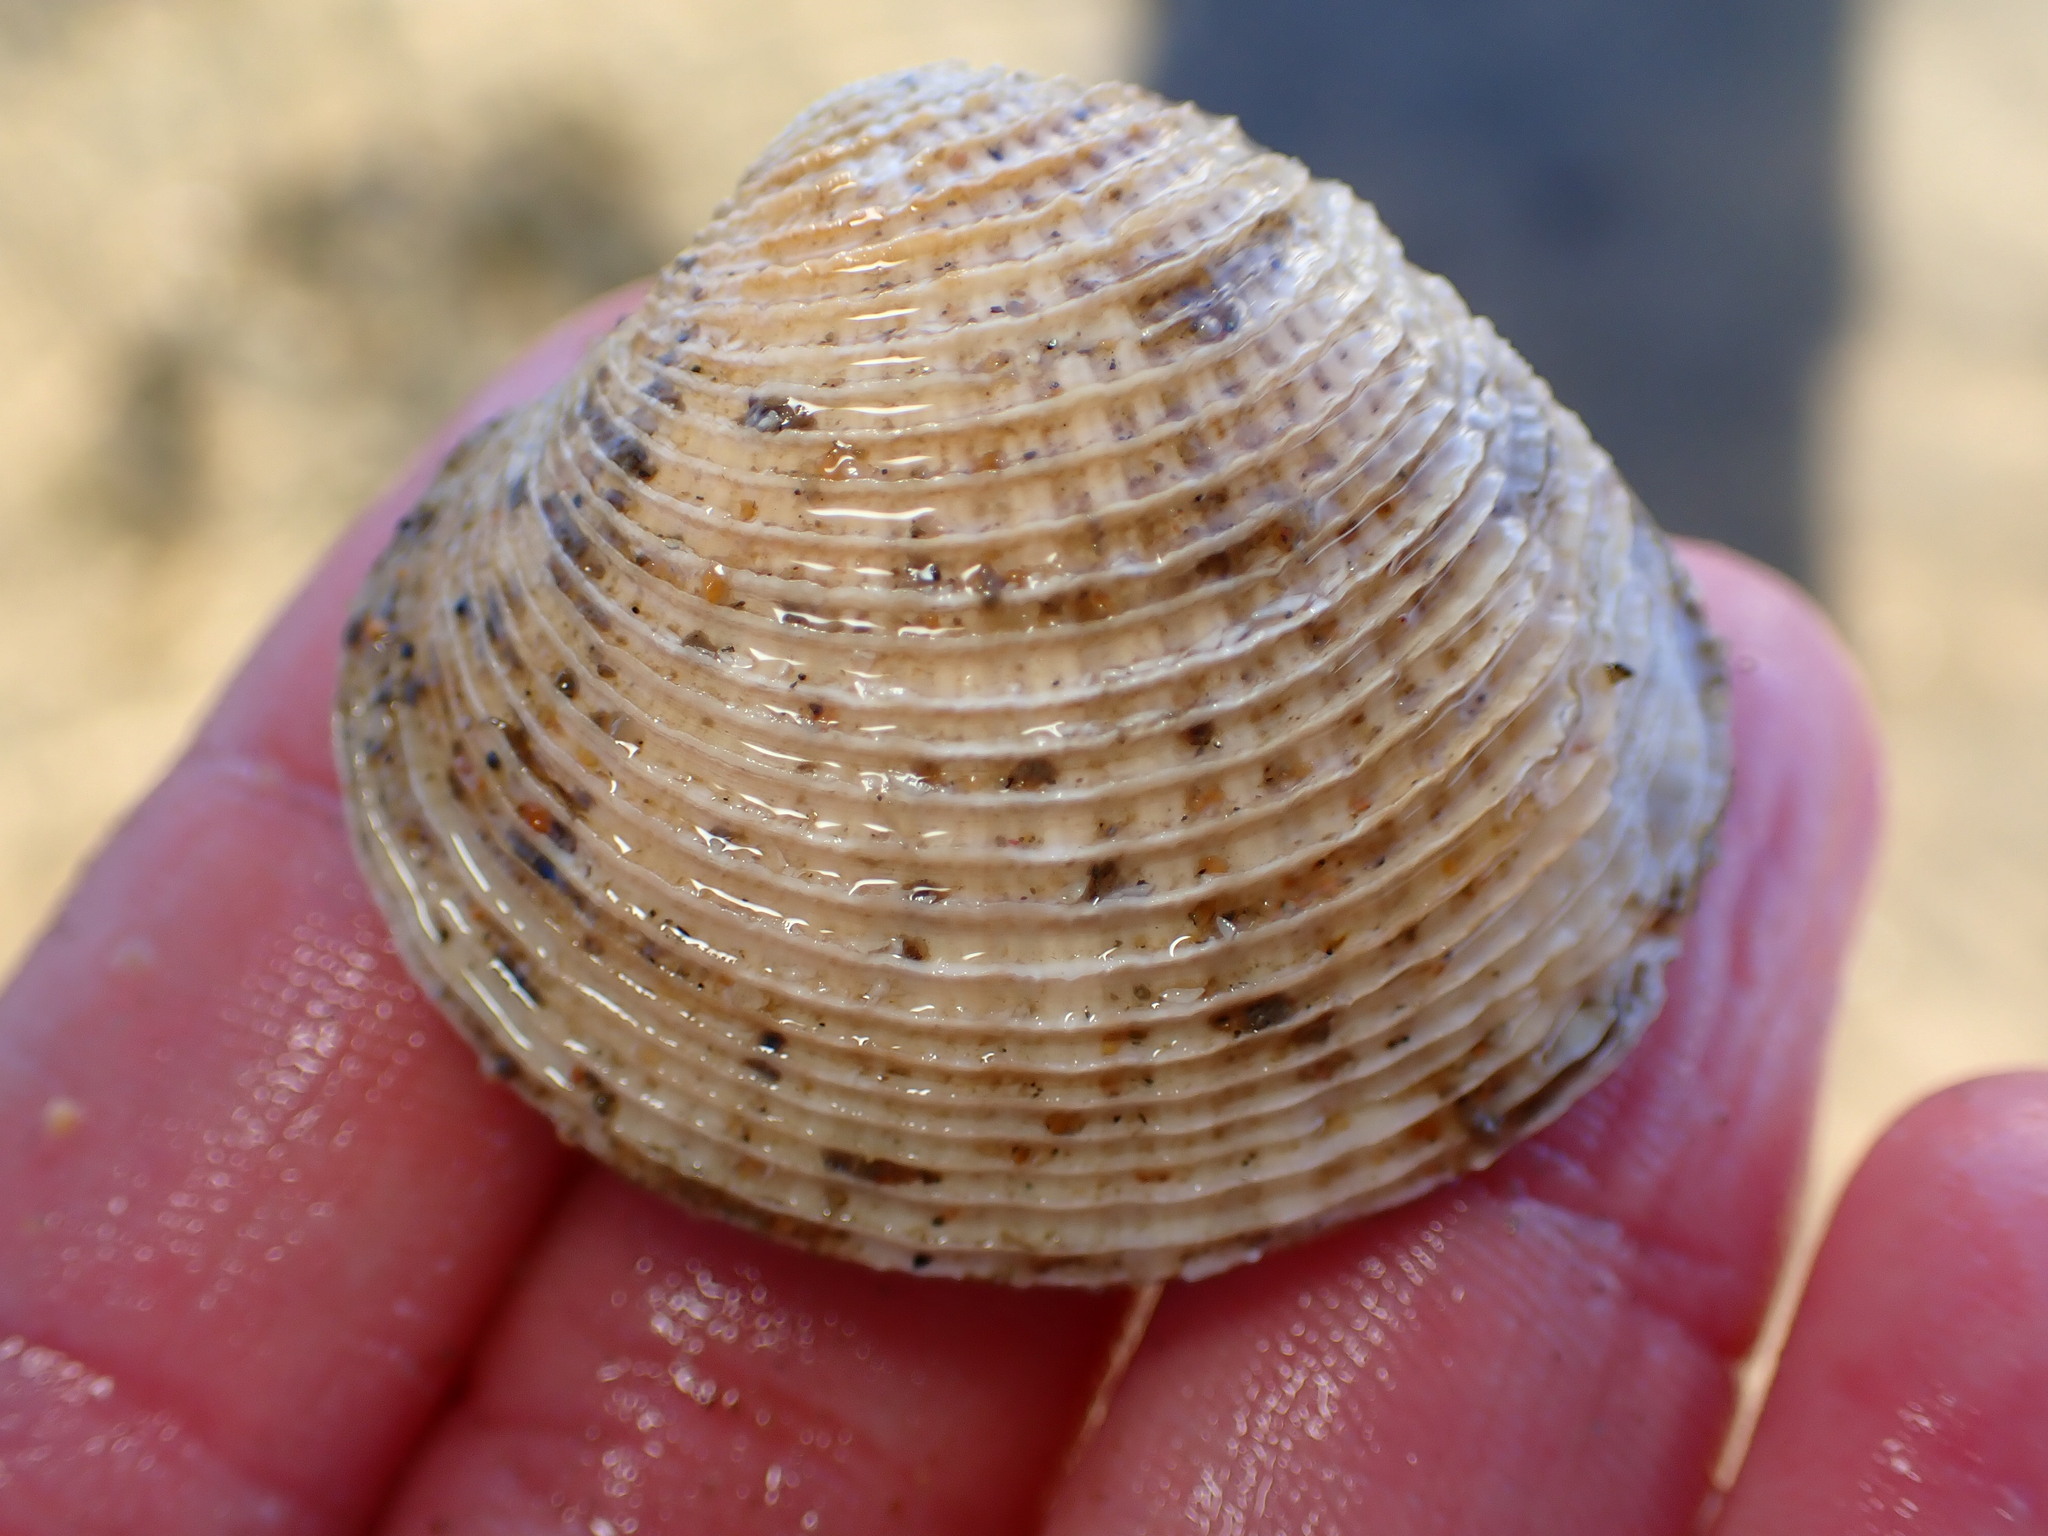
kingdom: Animalia
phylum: Mollusca
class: Bivalvia
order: Venerida
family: Veneridae
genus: Chione
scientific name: Chione undatella
